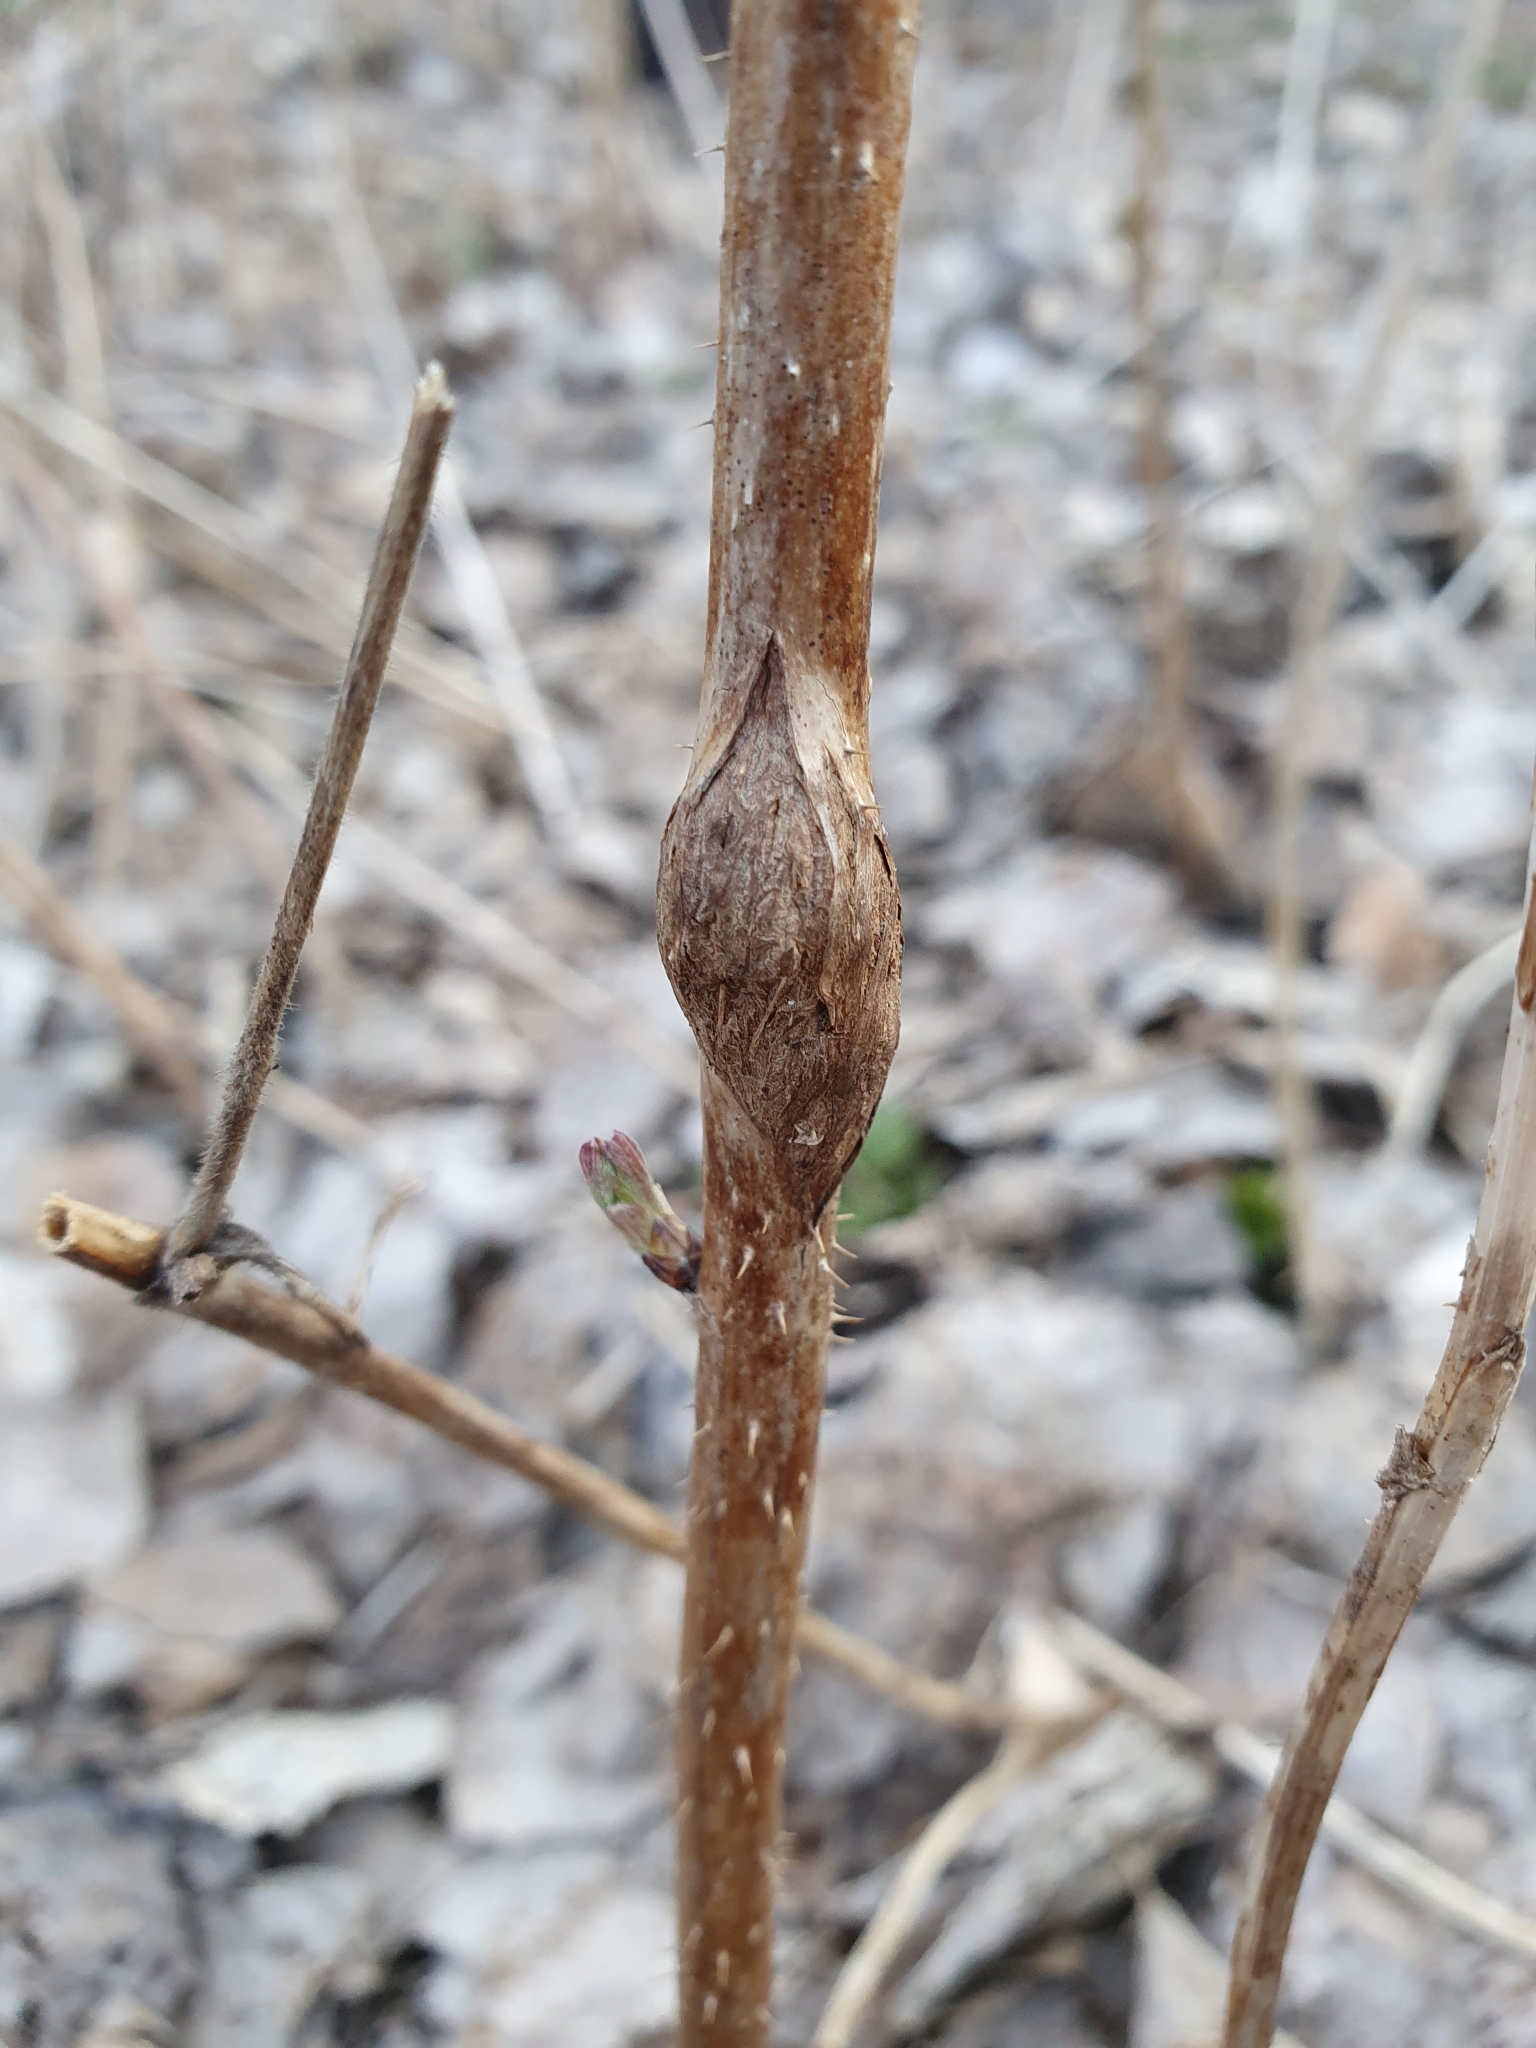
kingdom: Animalia
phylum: Arthropoda
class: Insecta
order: Diptera
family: Cecidomyiidae
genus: Lasioptera
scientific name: Lasioptera rubi
